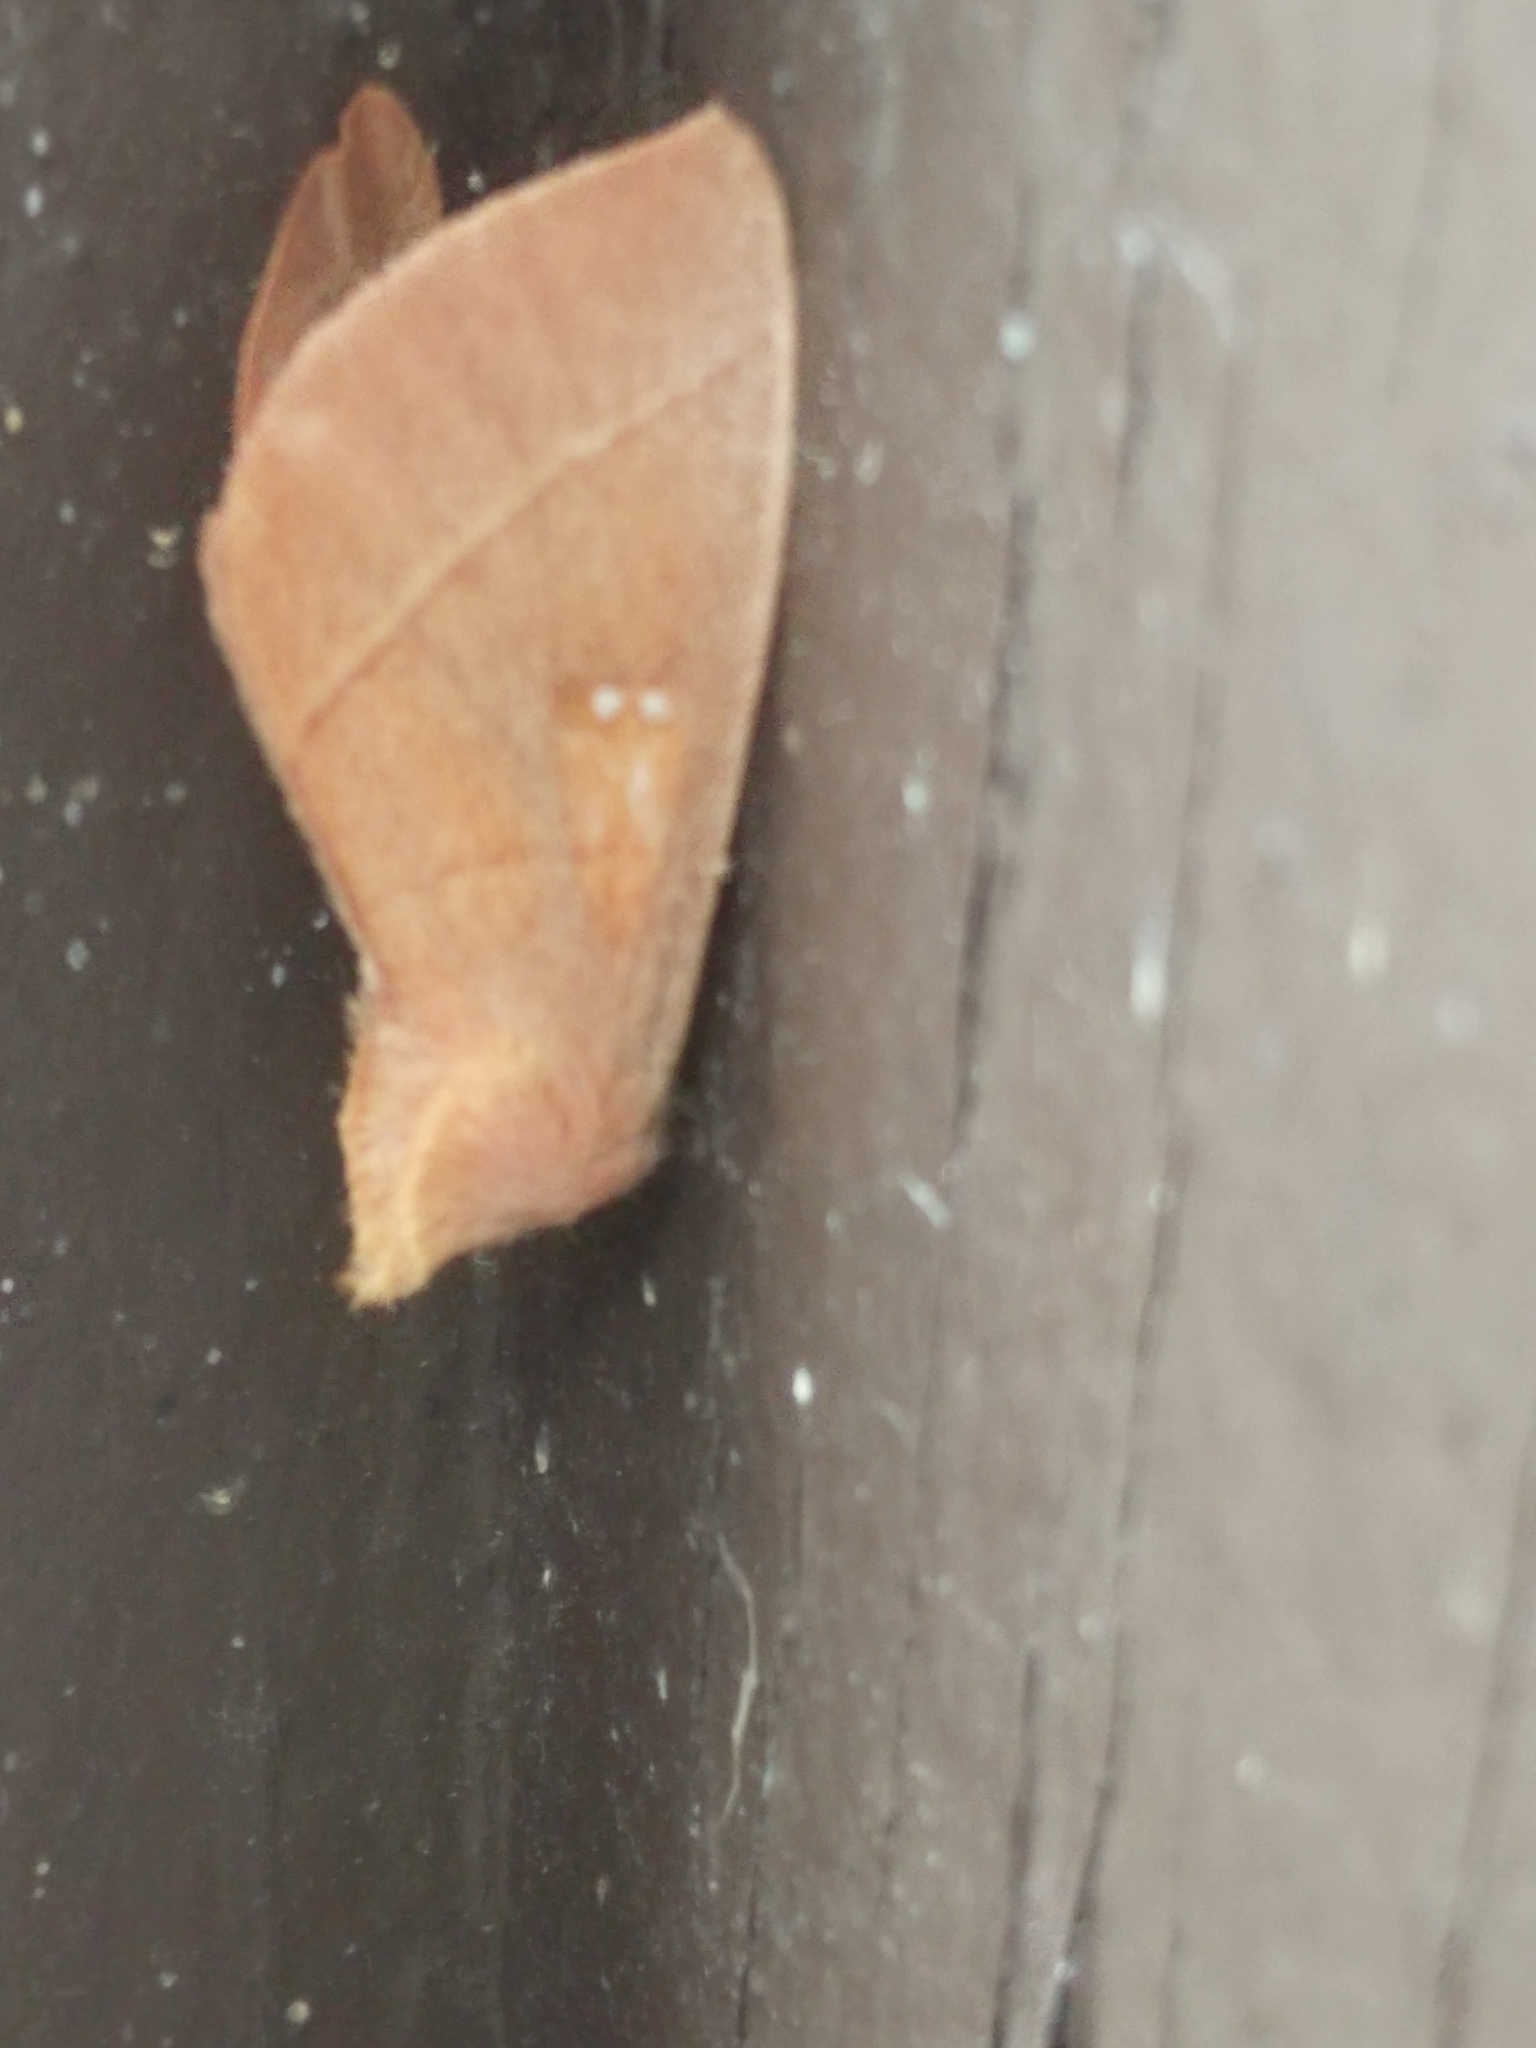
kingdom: Animalia
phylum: Arthropoda
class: Insecta
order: Lepidoptera
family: Notodontidae
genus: Nadata
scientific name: Nadata gibbosa
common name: White-dotted prominent
